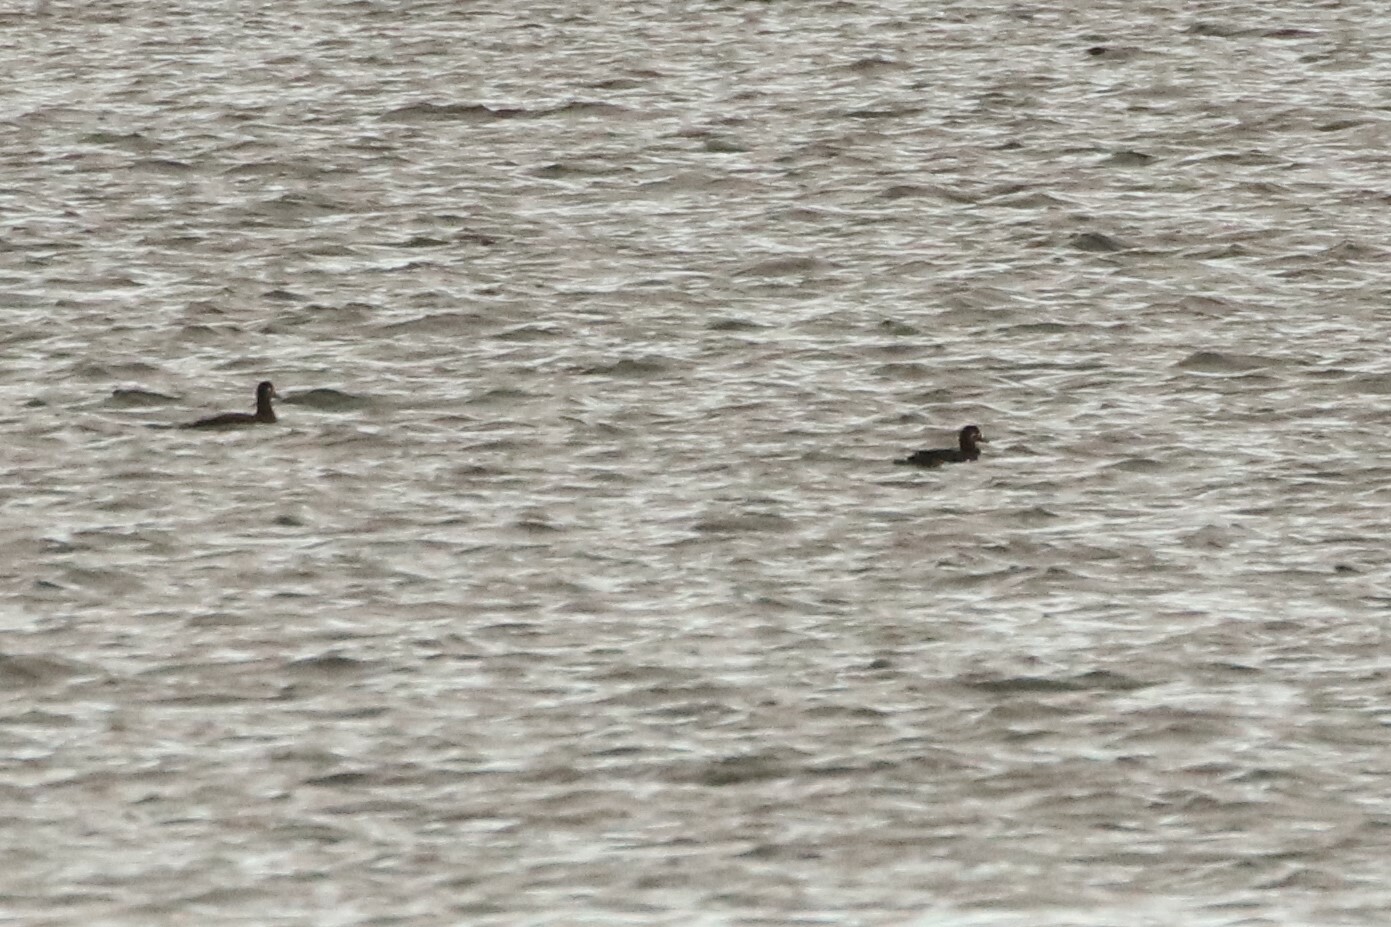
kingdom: Animalia
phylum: Chordata
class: Aves
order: Anseriformes
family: Anatidae
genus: Melanitta
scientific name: Melanitta perspicillata
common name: Surf scoter
